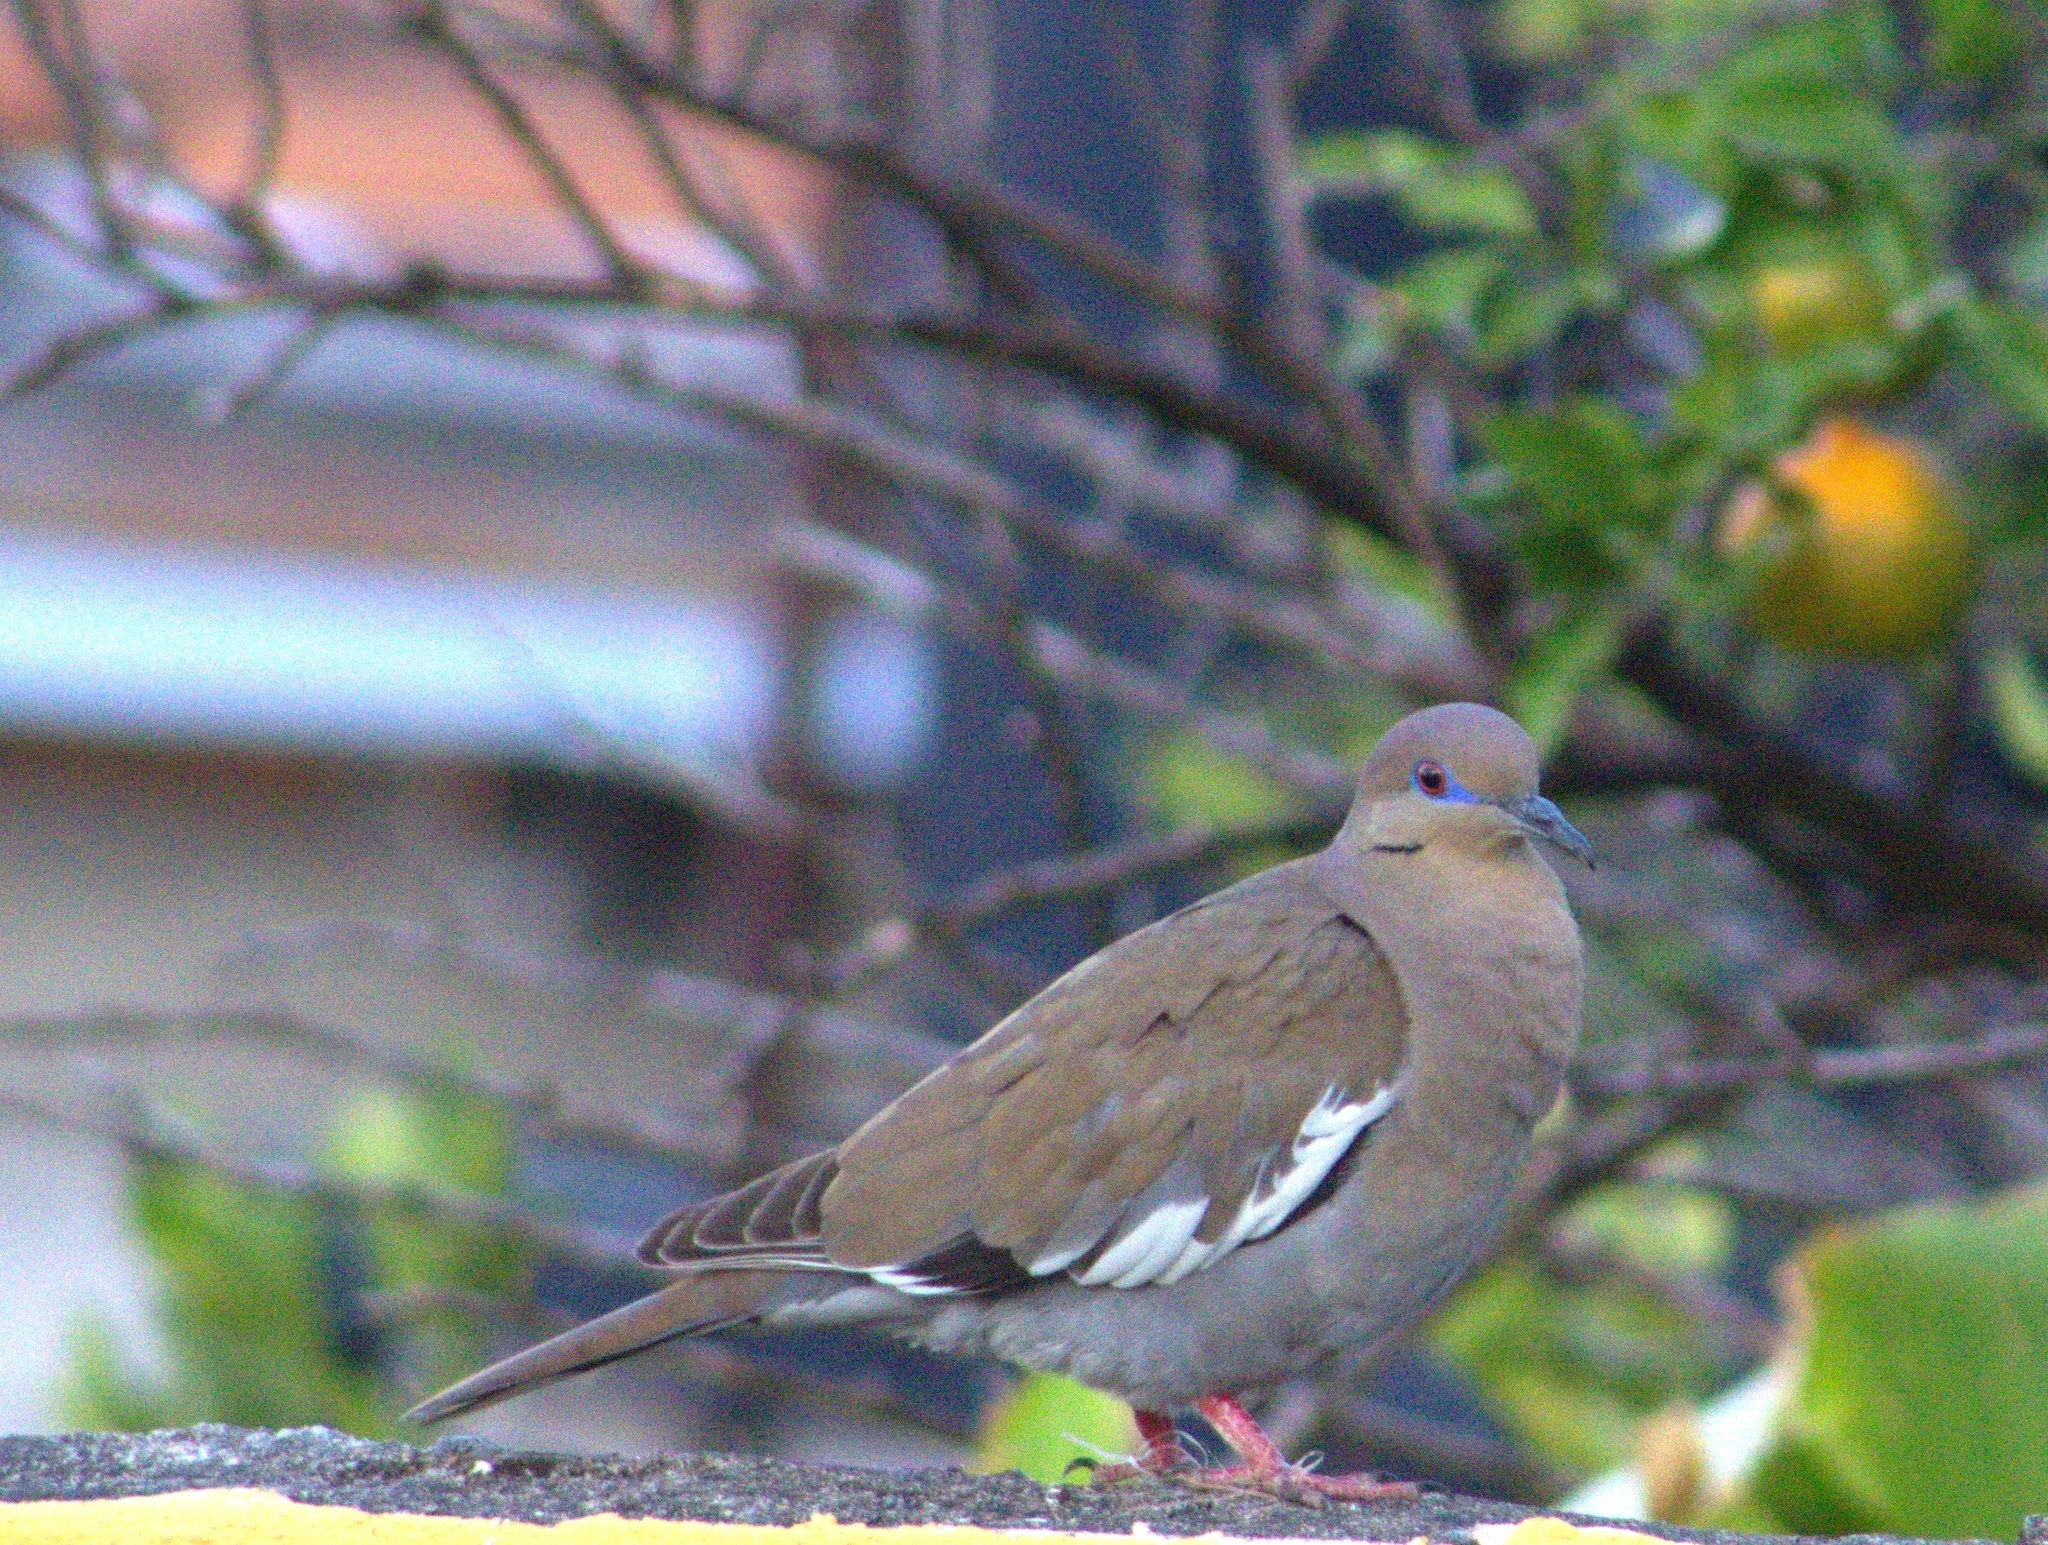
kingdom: Animalia
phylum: Chordata
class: Aves
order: Columbiformes
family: Columbidae
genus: Zenaida
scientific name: Zenaida asiatica
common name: White-winged dove
